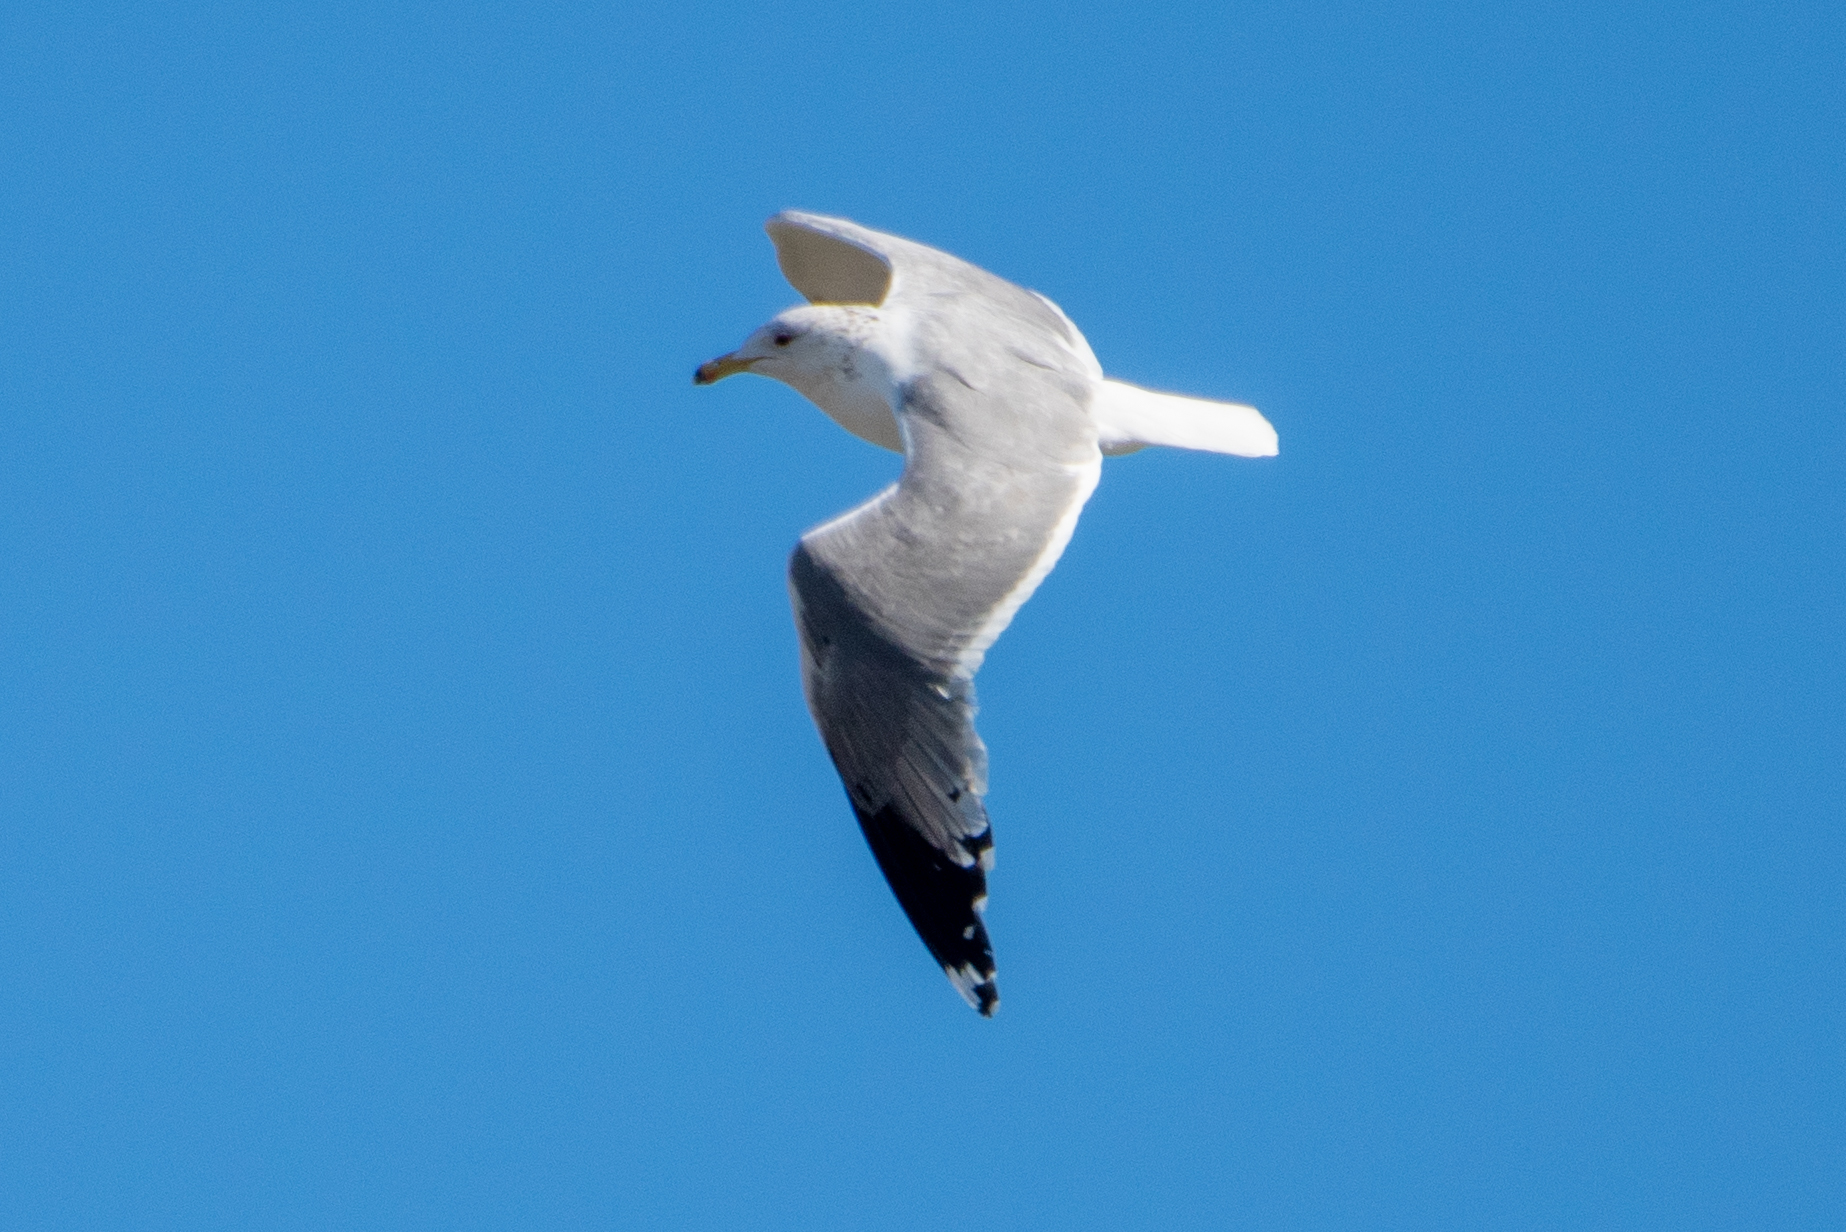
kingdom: Animalia
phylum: Chordata
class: Aves
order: Charadriiformes
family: Laridae
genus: Larus
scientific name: Larus californicus
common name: California gull
